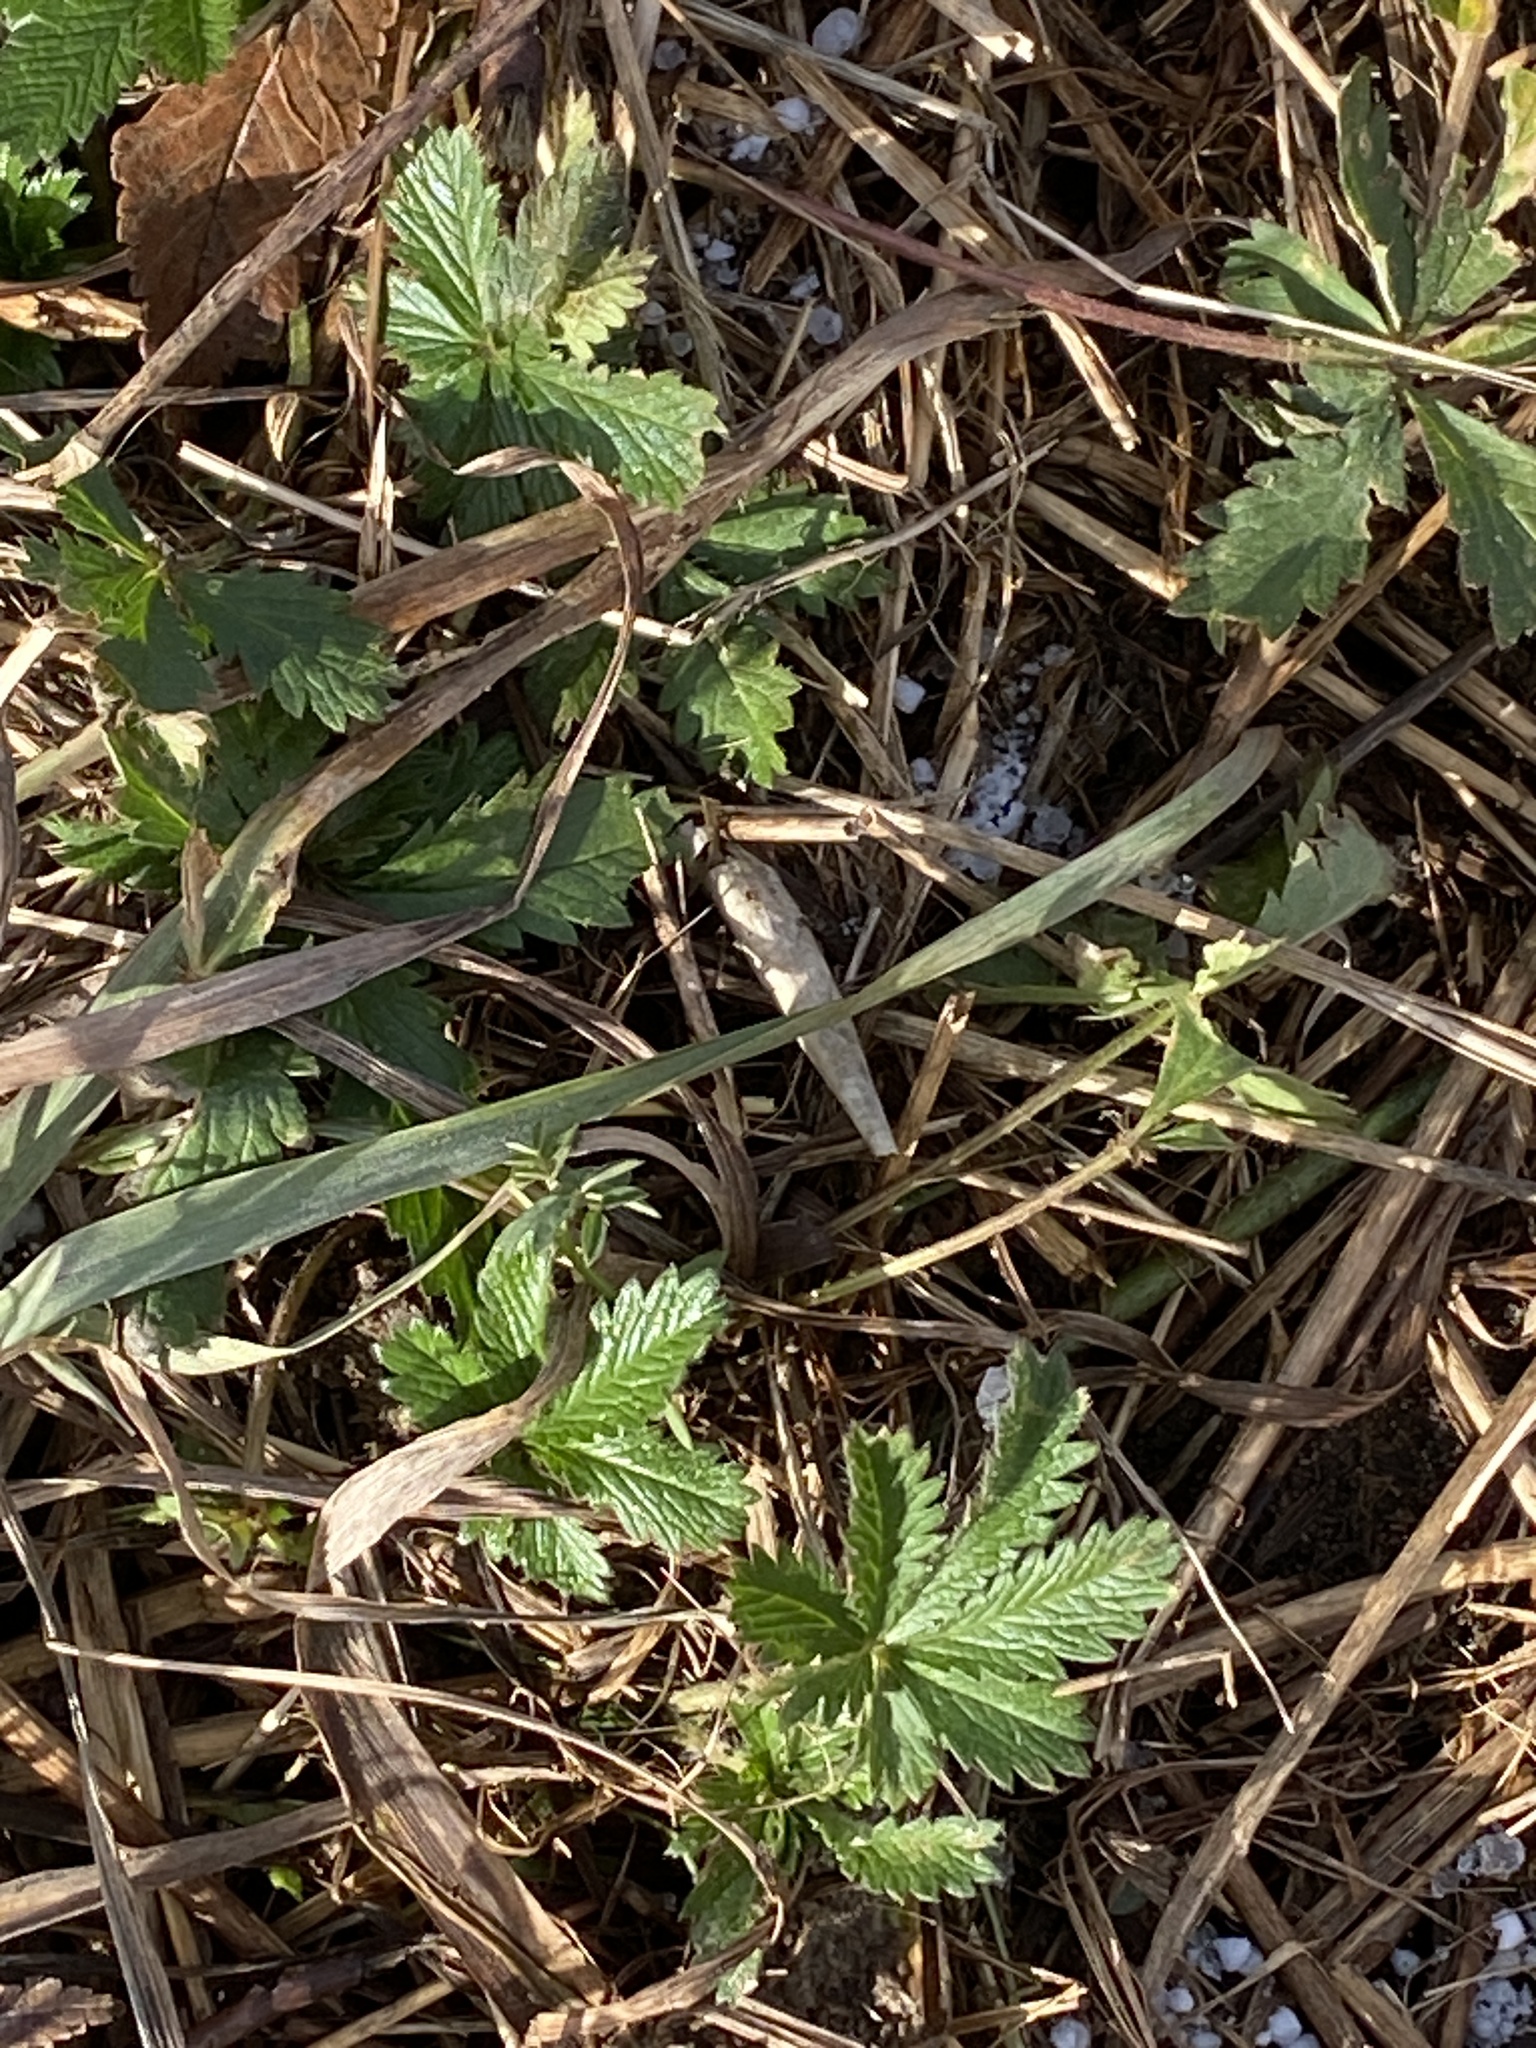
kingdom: Plantae
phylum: Tracheophyta
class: Magnoliopsida
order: Rosales
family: Rosaceae
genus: Potentilla
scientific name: Potentilla recta
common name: Sulphur cinquefoil
